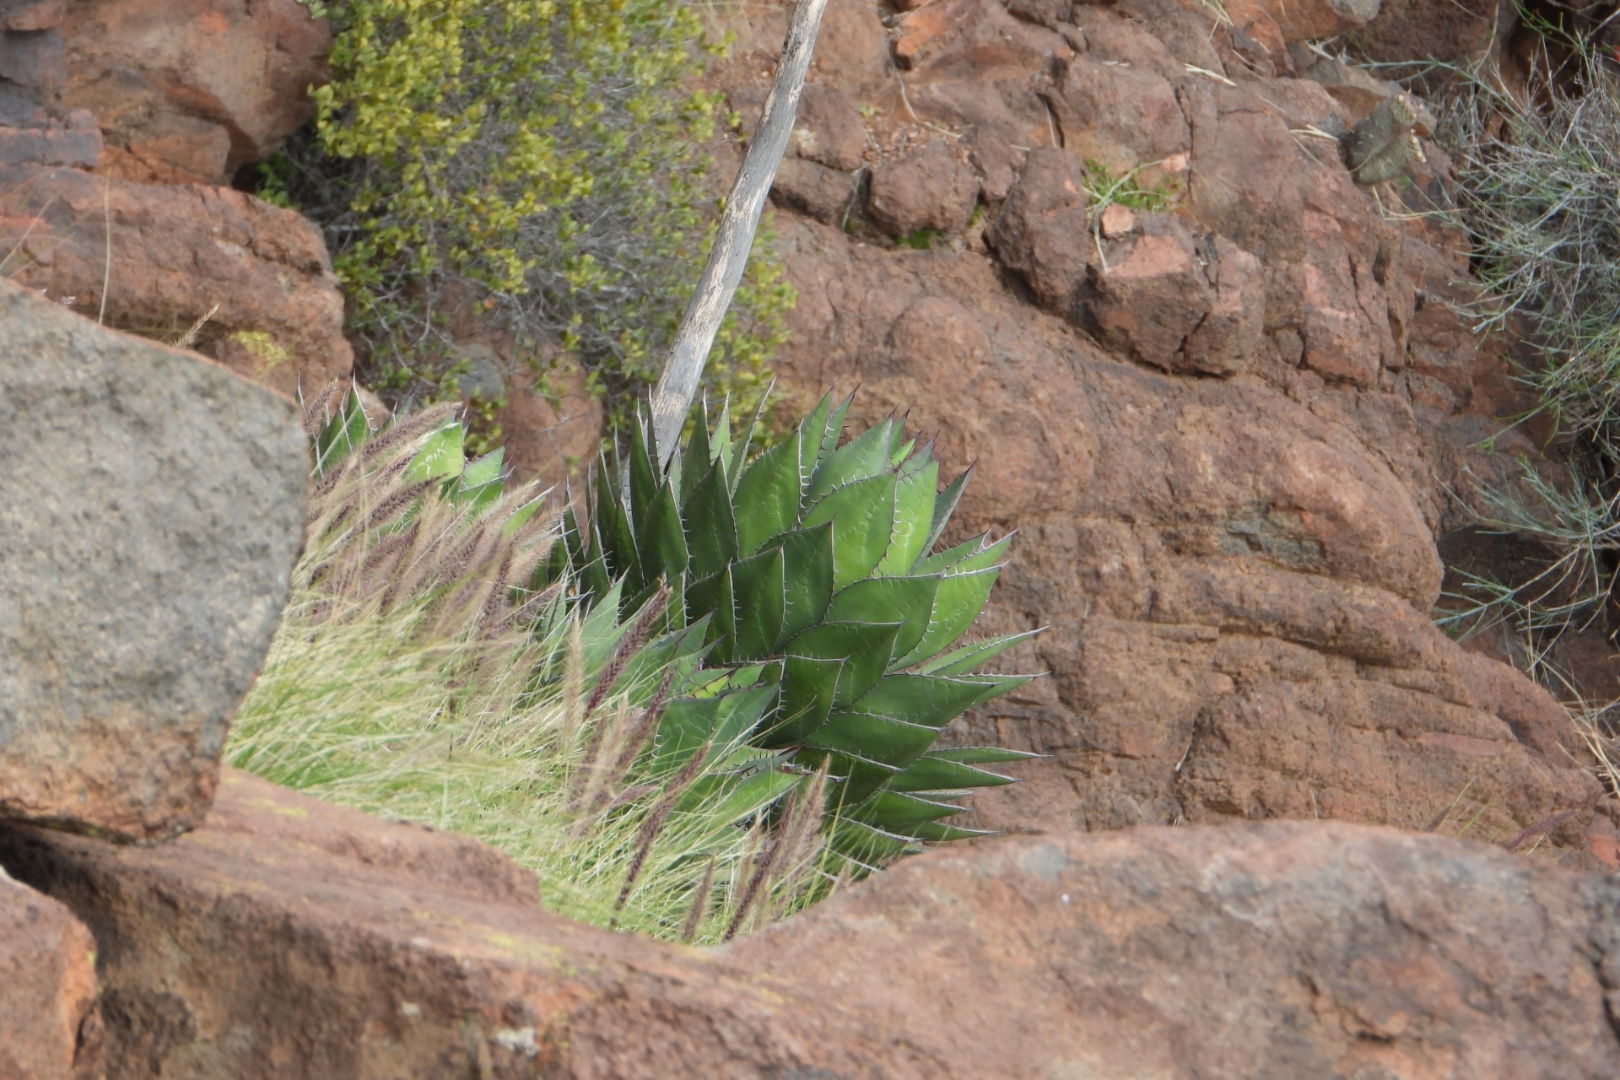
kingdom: Plantae
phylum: Tracheophyta
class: Liliopsida
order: Asparagales
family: Asparagaceae
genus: Agave
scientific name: Agave shawii
